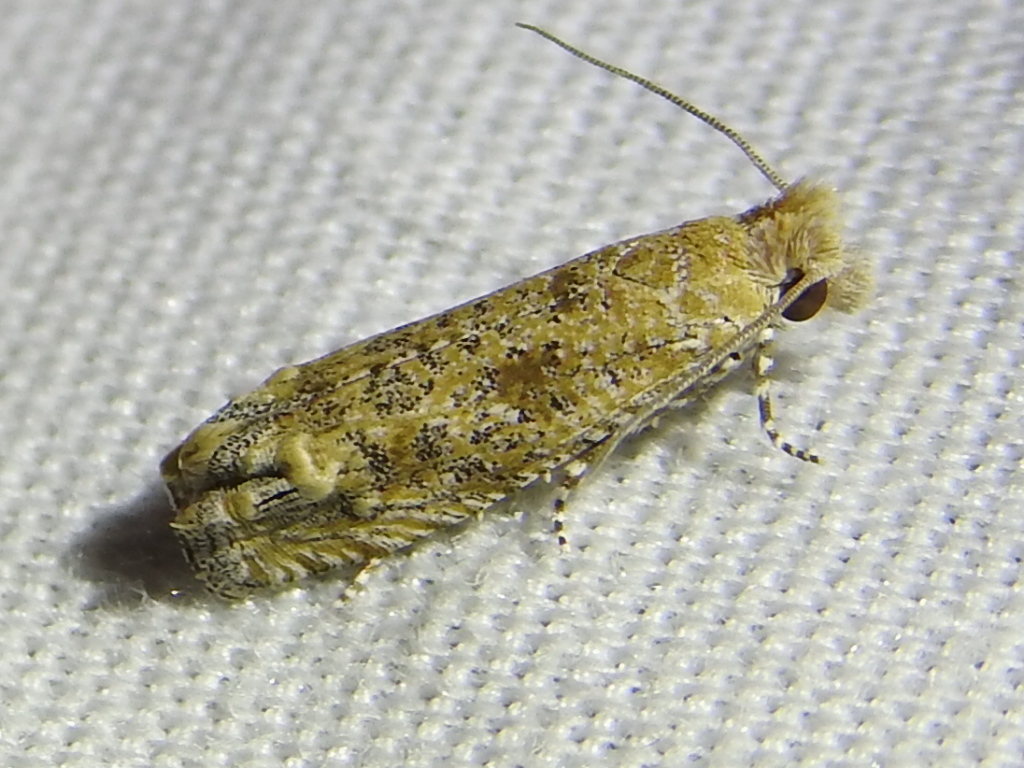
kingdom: Animalia
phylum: Arthropoda
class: Insecta
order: Lepidoptera
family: Tortricidae
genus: Pelochrista
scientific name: Pelochrista comatulana
